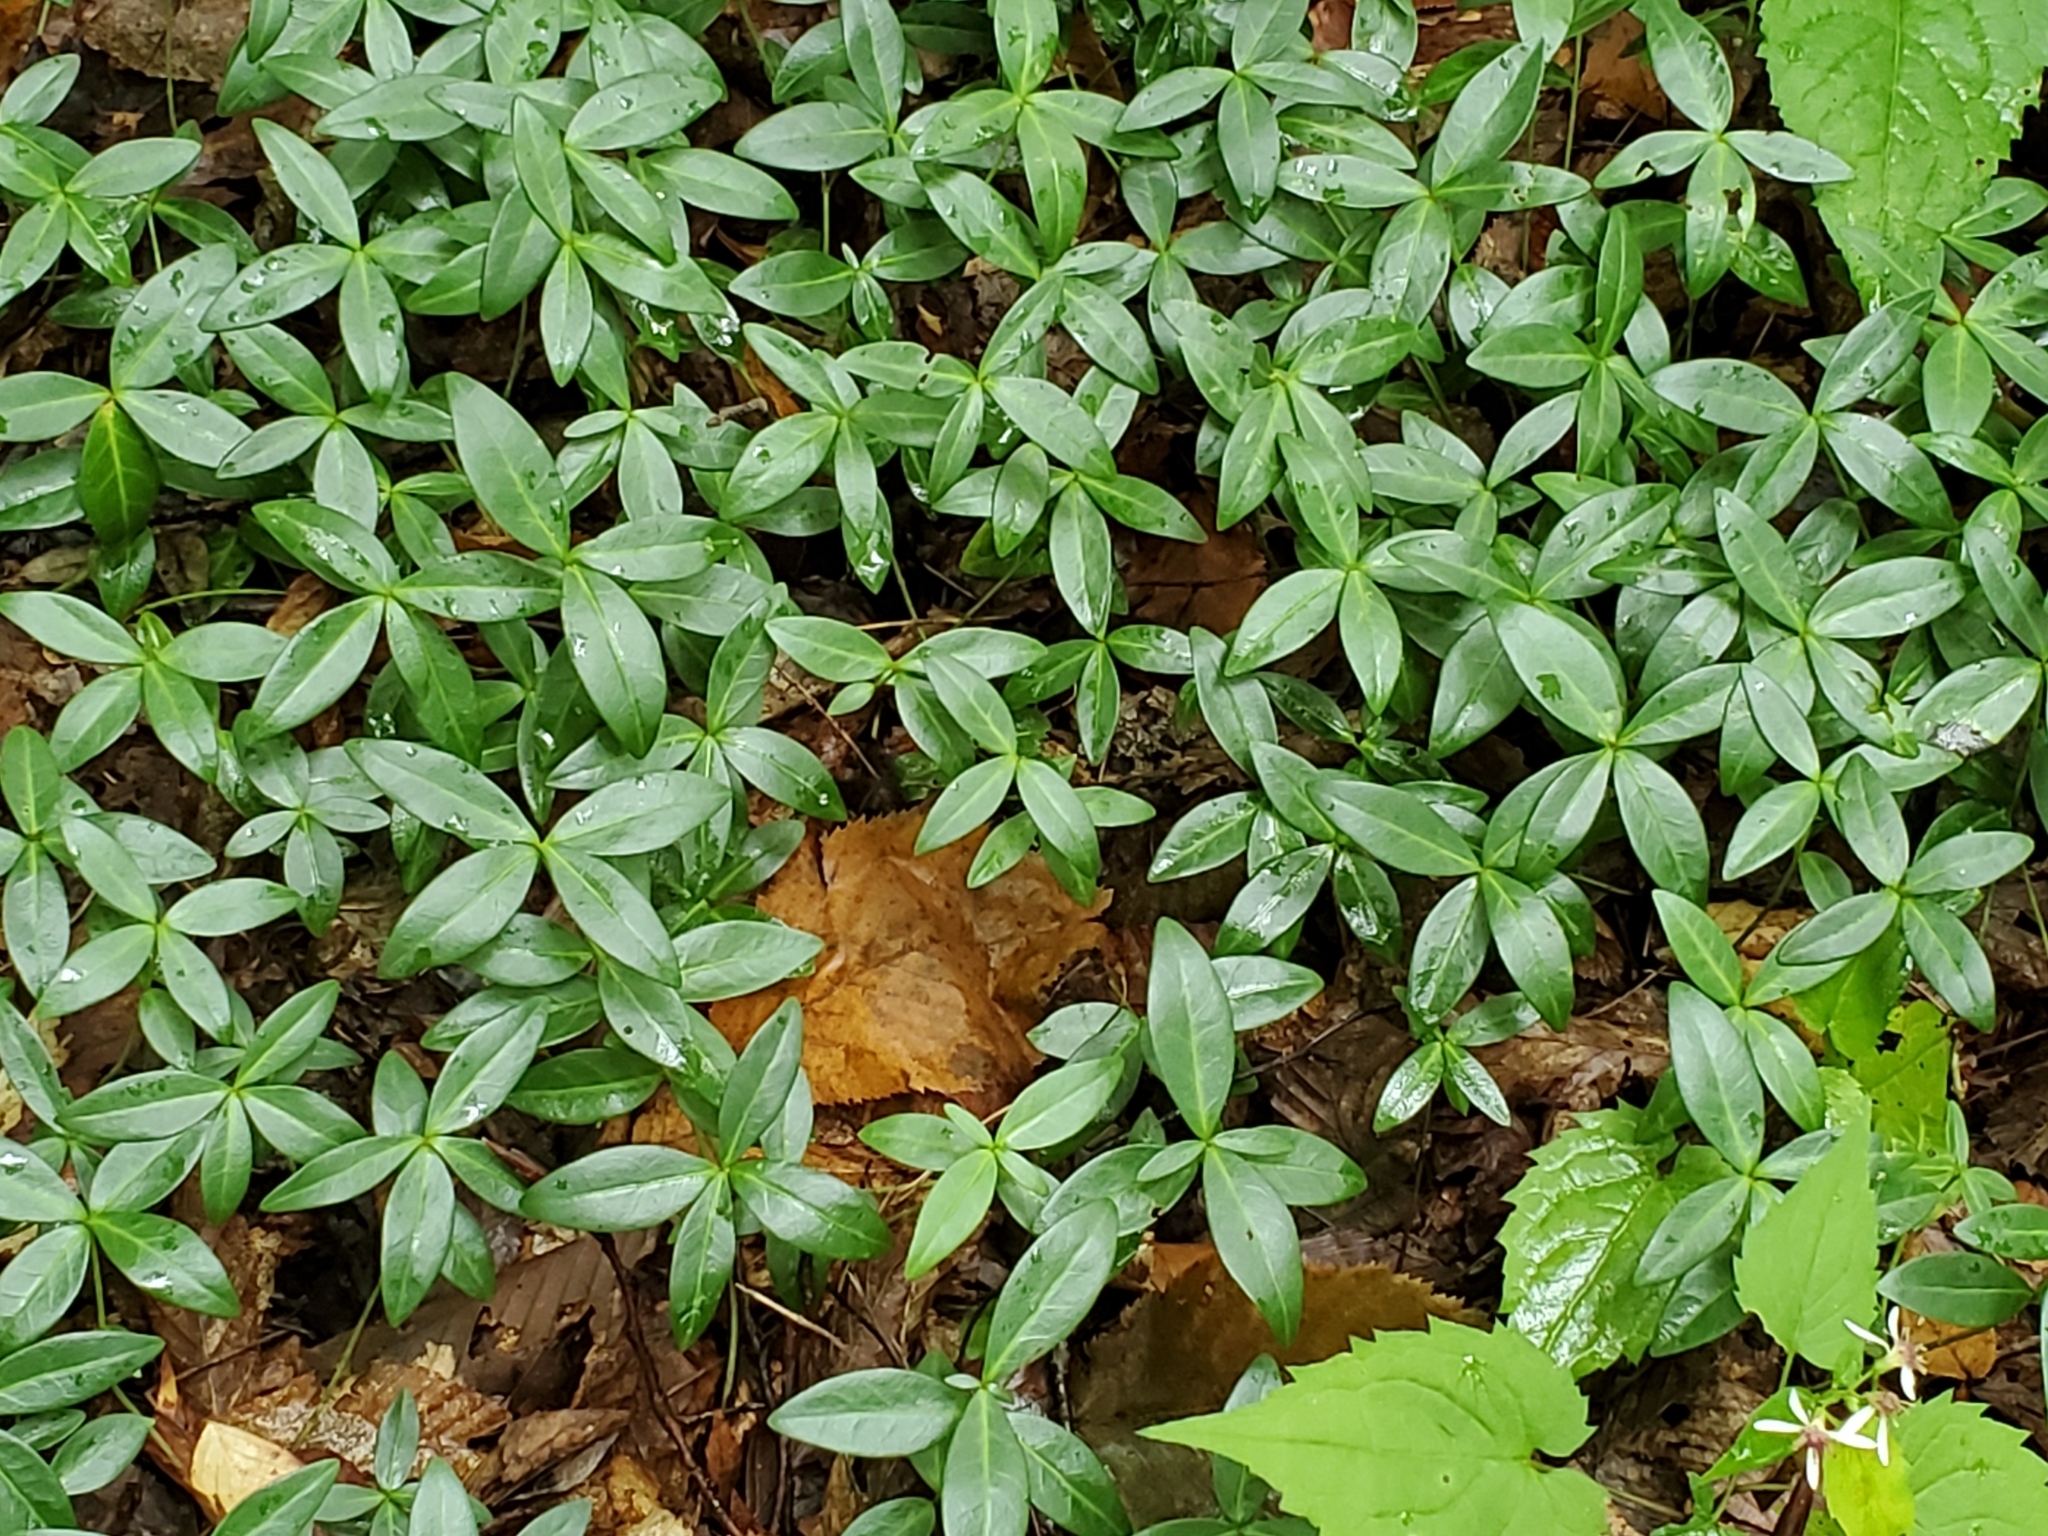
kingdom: Plantae
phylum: Tracheophyta
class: Magnoliopsida
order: Gentianales
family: Apocynaceae
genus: Vinca
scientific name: Vinca minor
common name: Lesser periwinkle
